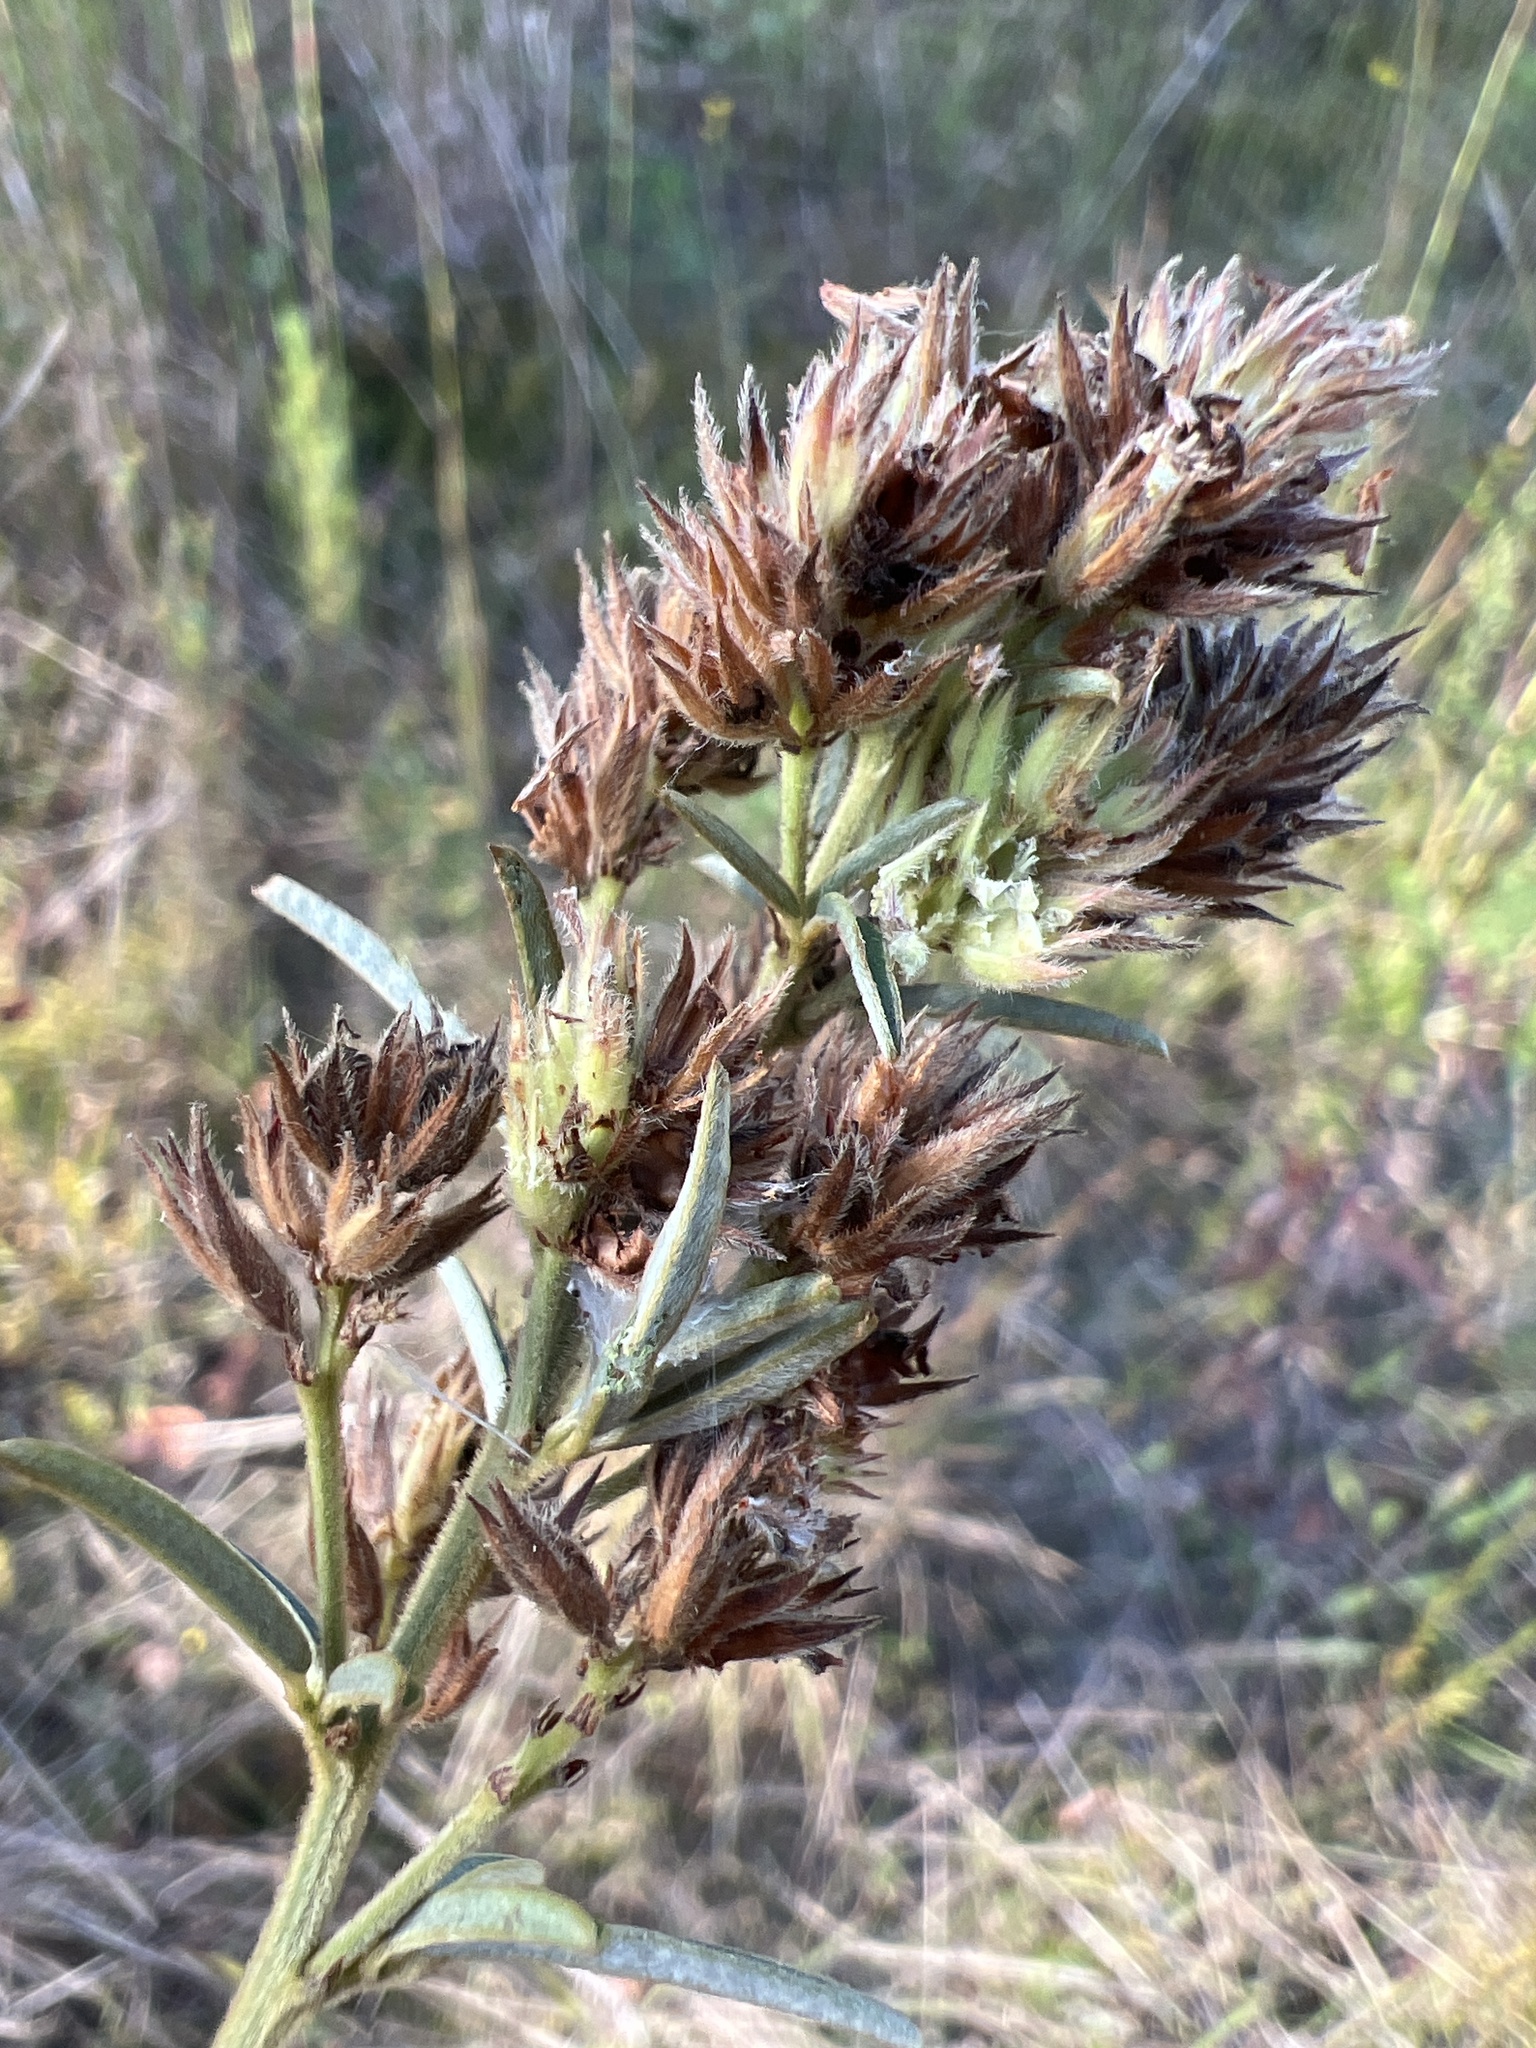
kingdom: Plantae
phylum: Tracheophyta
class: Magnoliopsida
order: Fabales
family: Fabaceae
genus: Lespedeza
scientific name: Lespedeza angustifolia
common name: Narrow-leaf bush-clover
